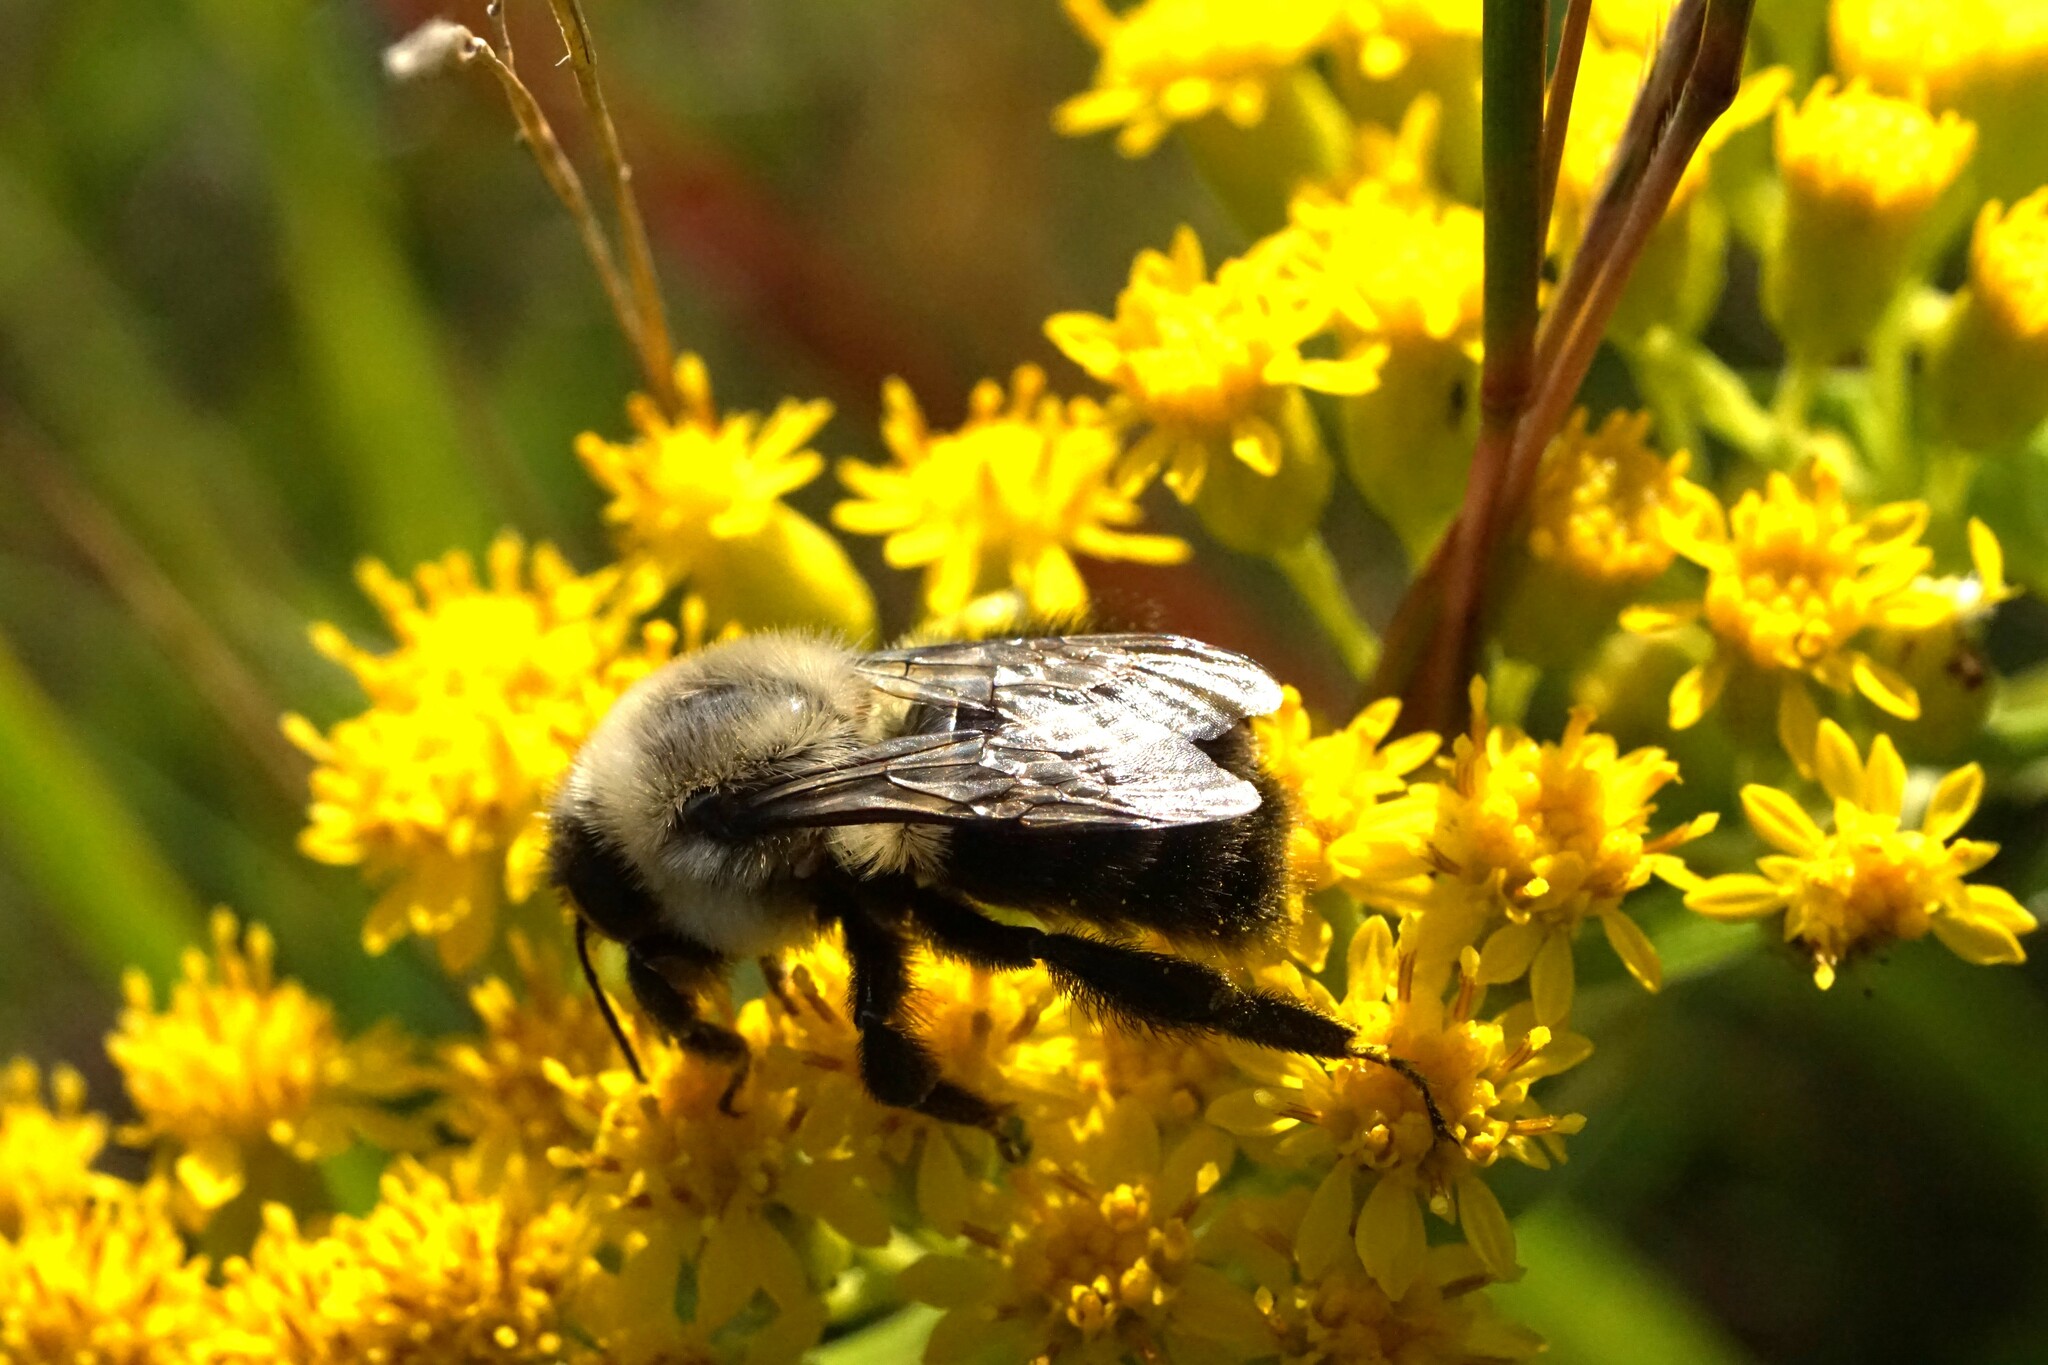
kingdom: Animalia
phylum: Arthropoda
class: Insecta
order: Hymenoptera
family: Apidae
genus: Bombus
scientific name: Bombus impatiens
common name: Common eastern bumble bee
